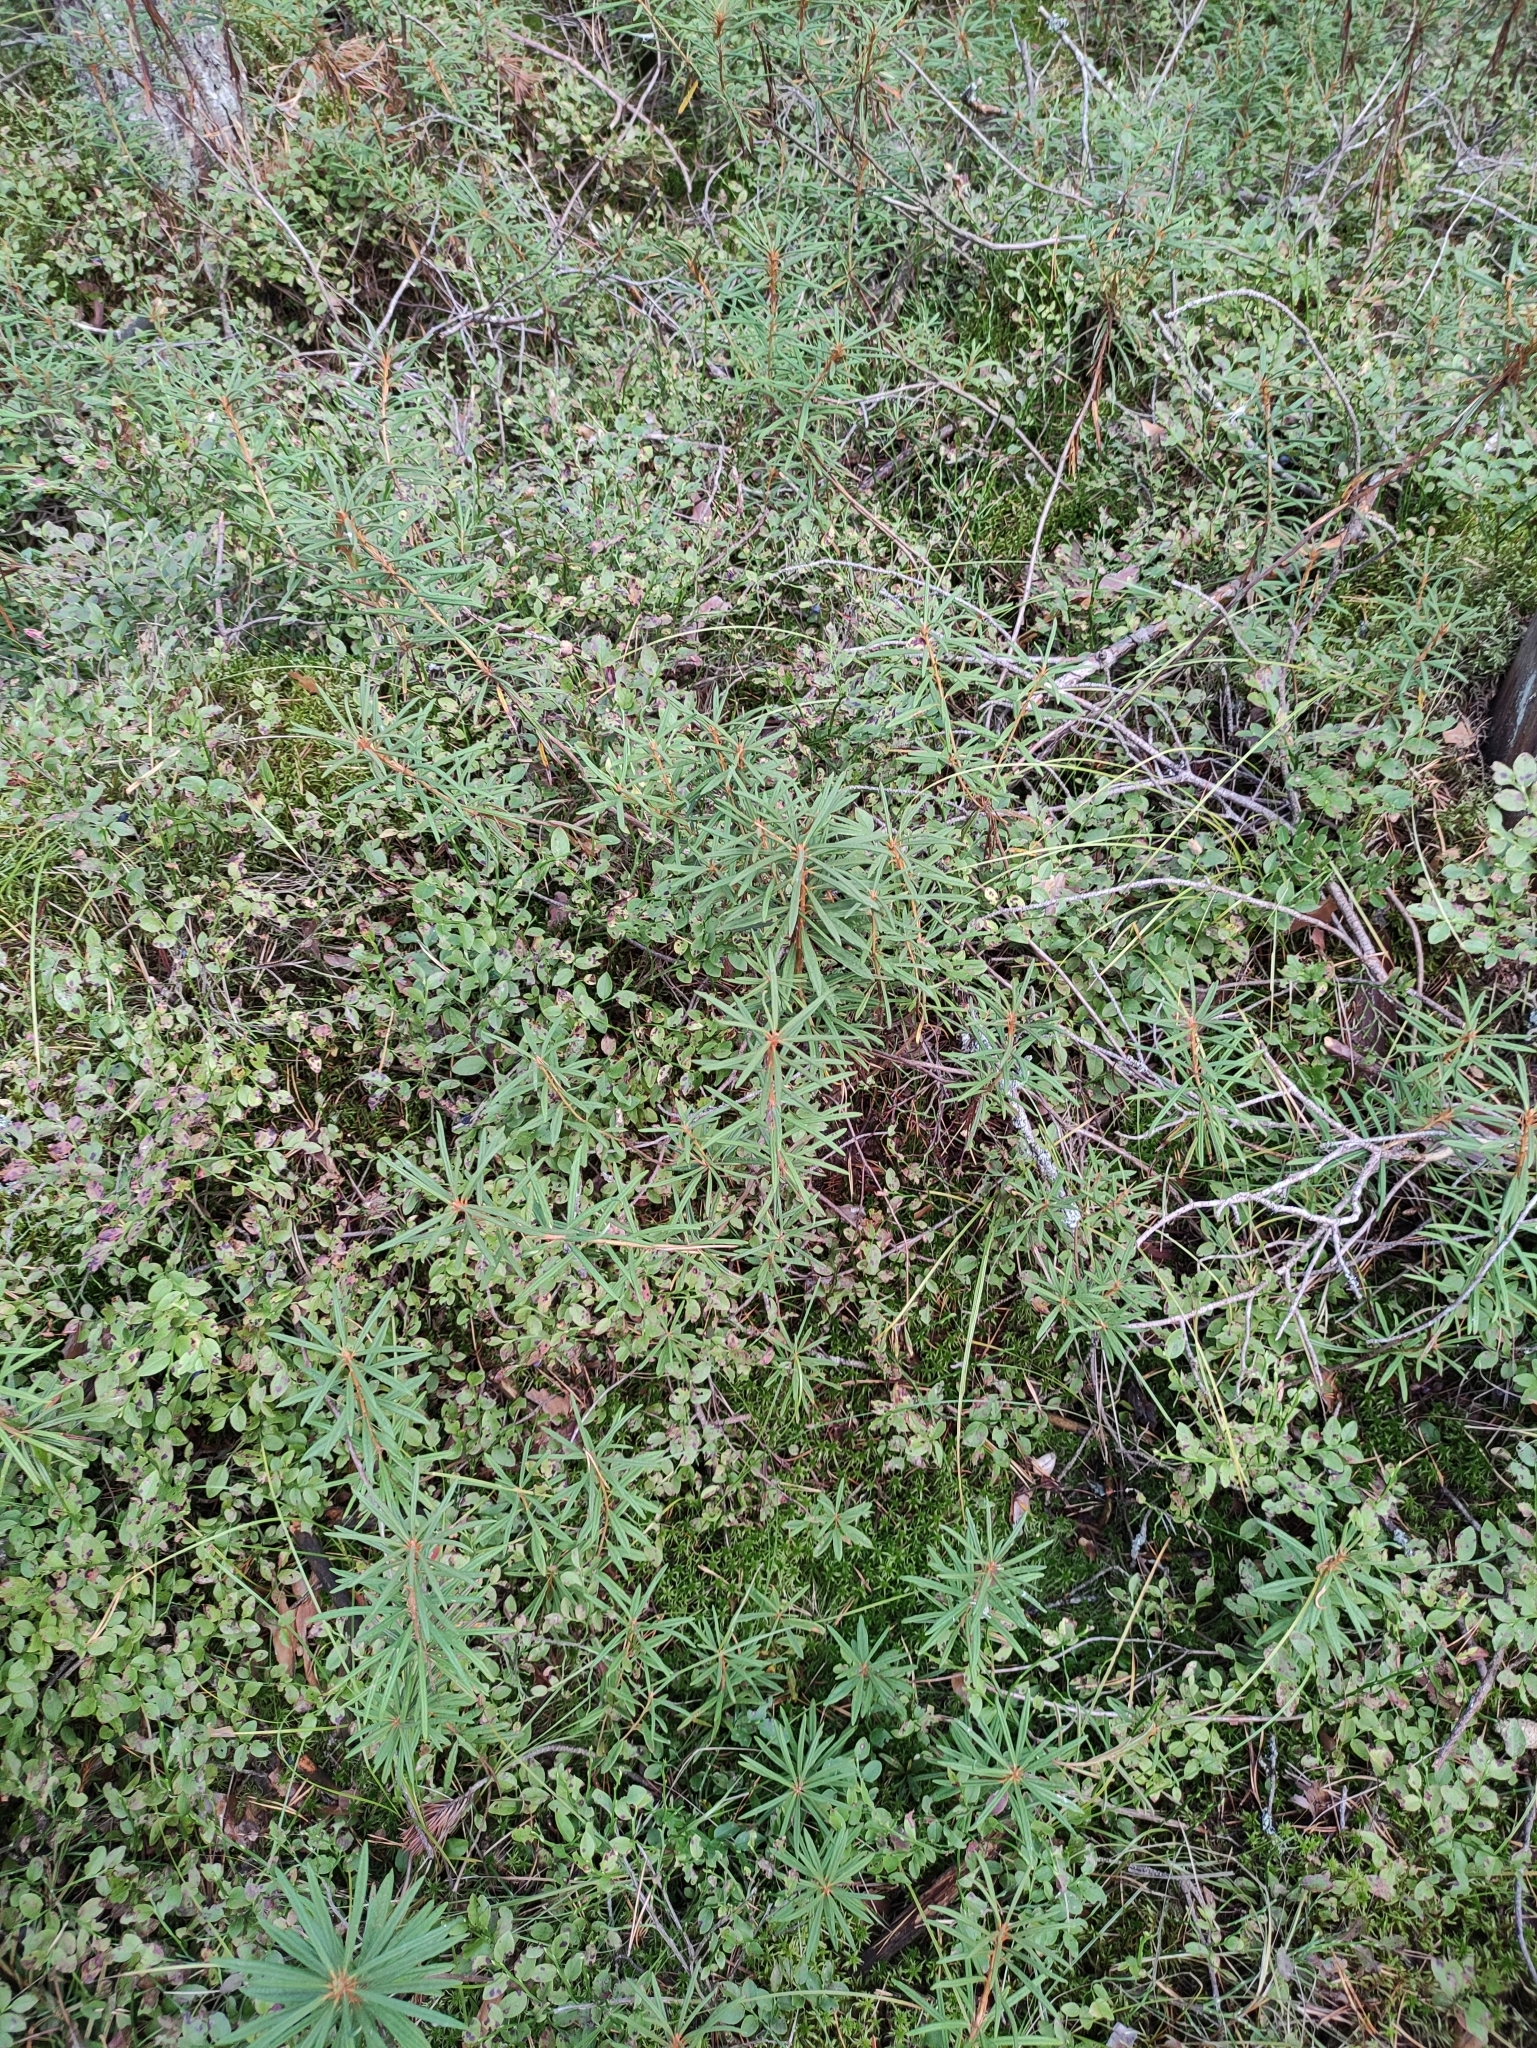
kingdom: Plantae
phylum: Tracheophyta
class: Magnoliopsida
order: Ericales
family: Ericaceae
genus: Rhododendron
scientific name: Rhododendron tomentosum
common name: Marsh labrador tea
